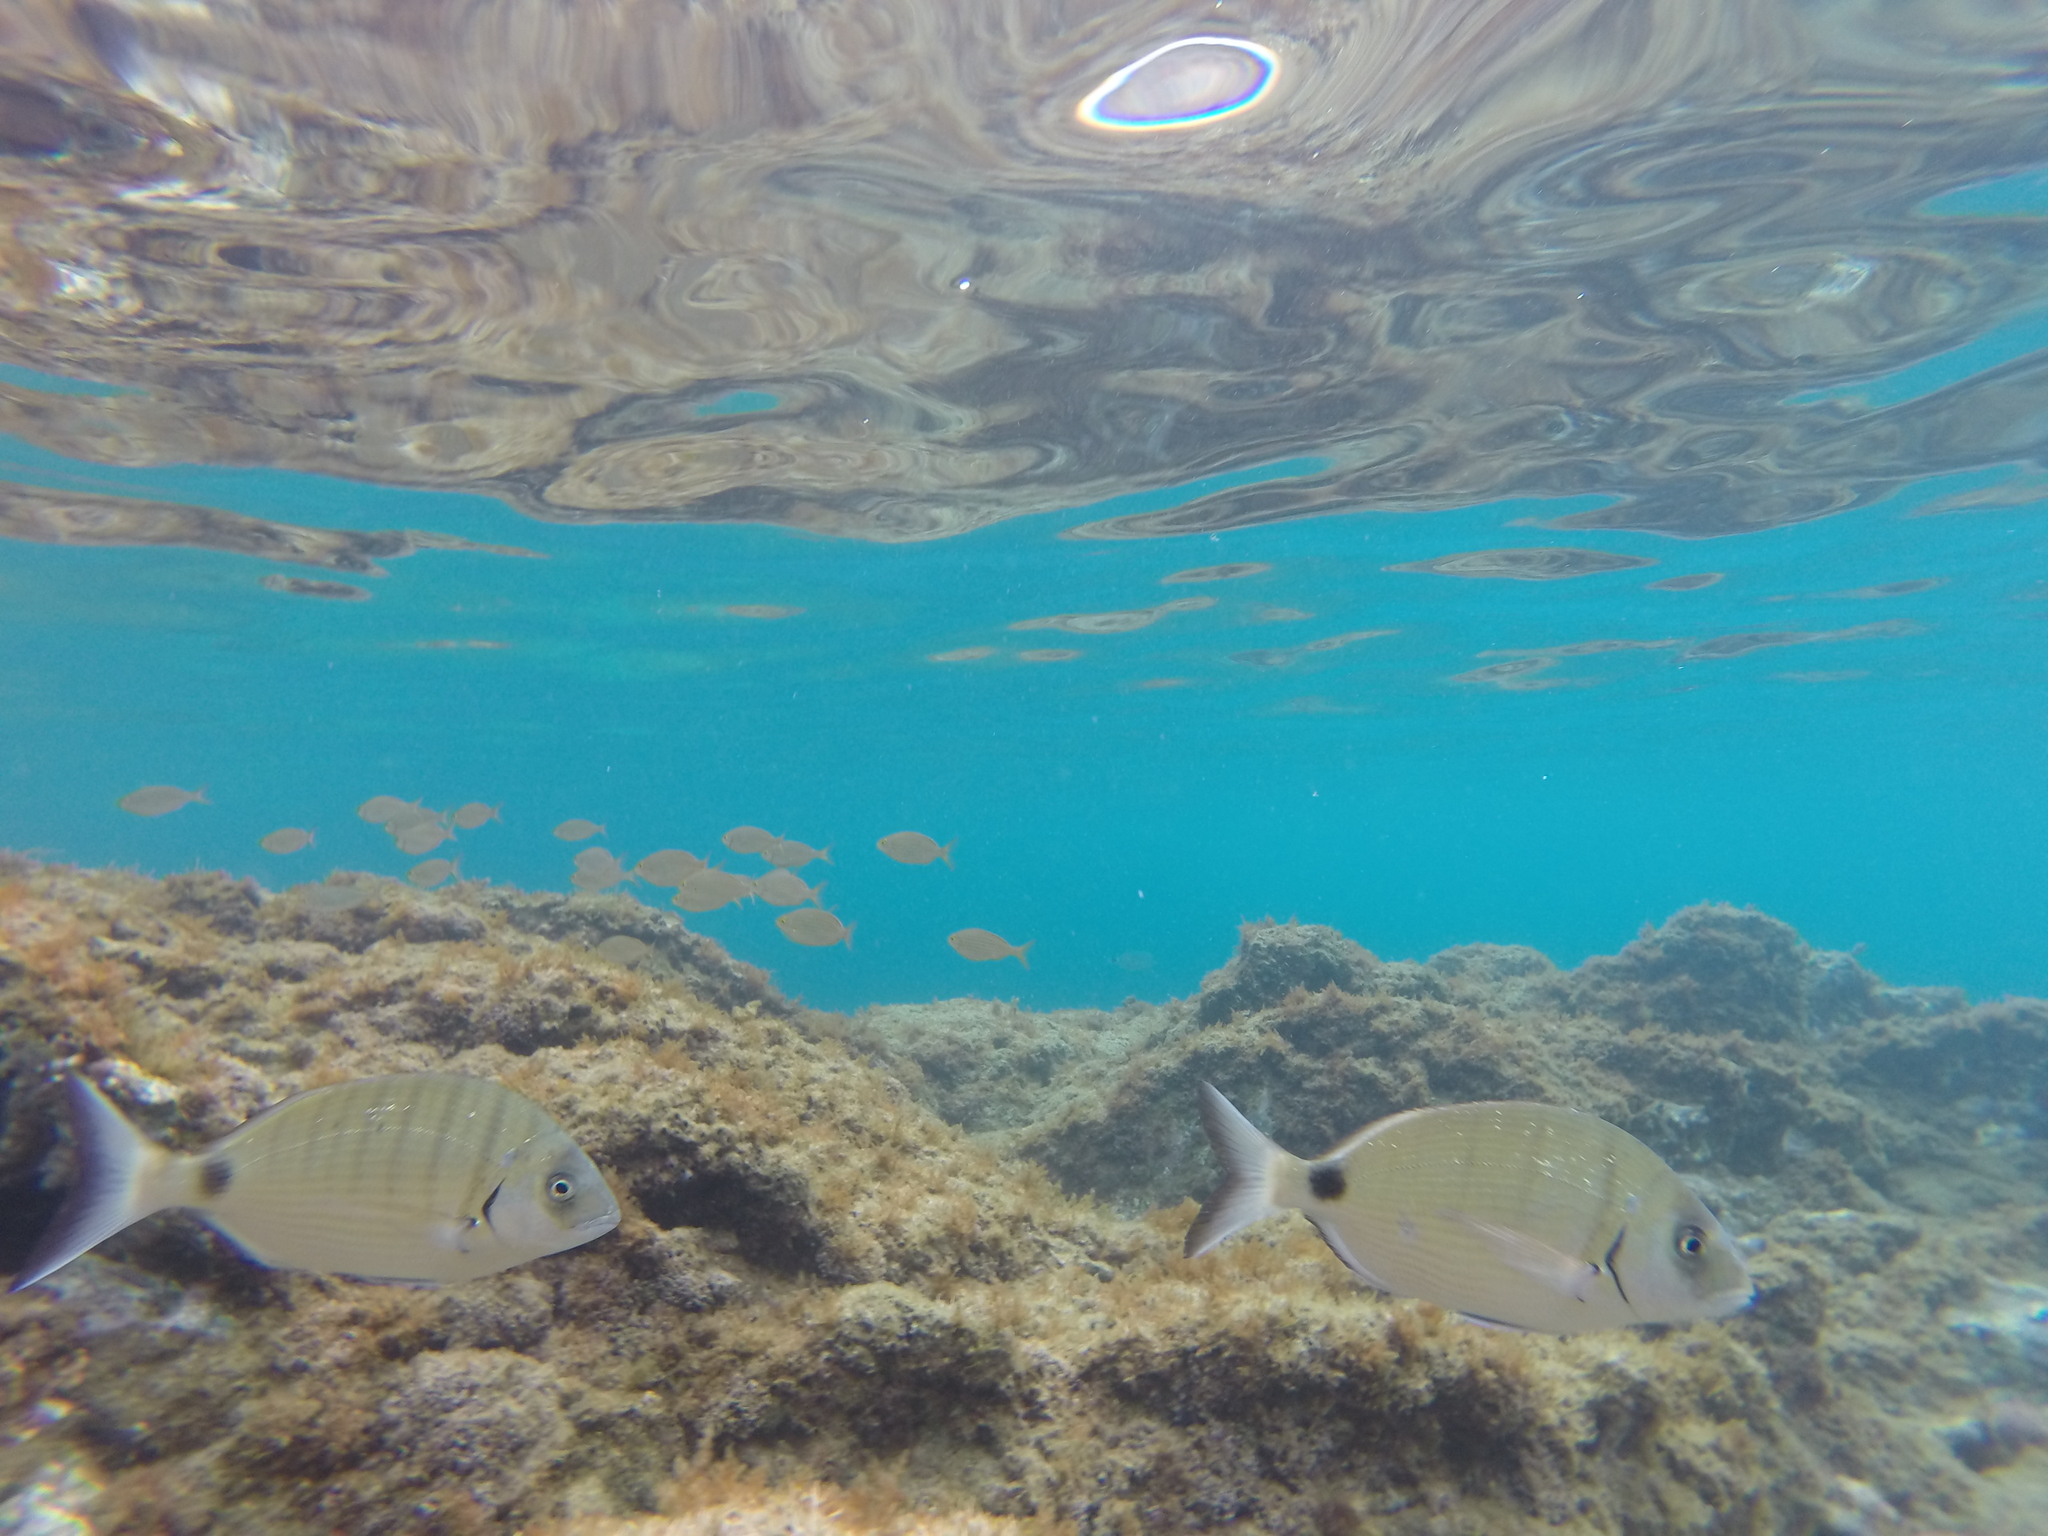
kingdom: Animalia
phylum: Chordata
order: Perciformes
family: Sparidae
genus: Diplodus
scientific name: Diplodus sargus
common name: White seabream
